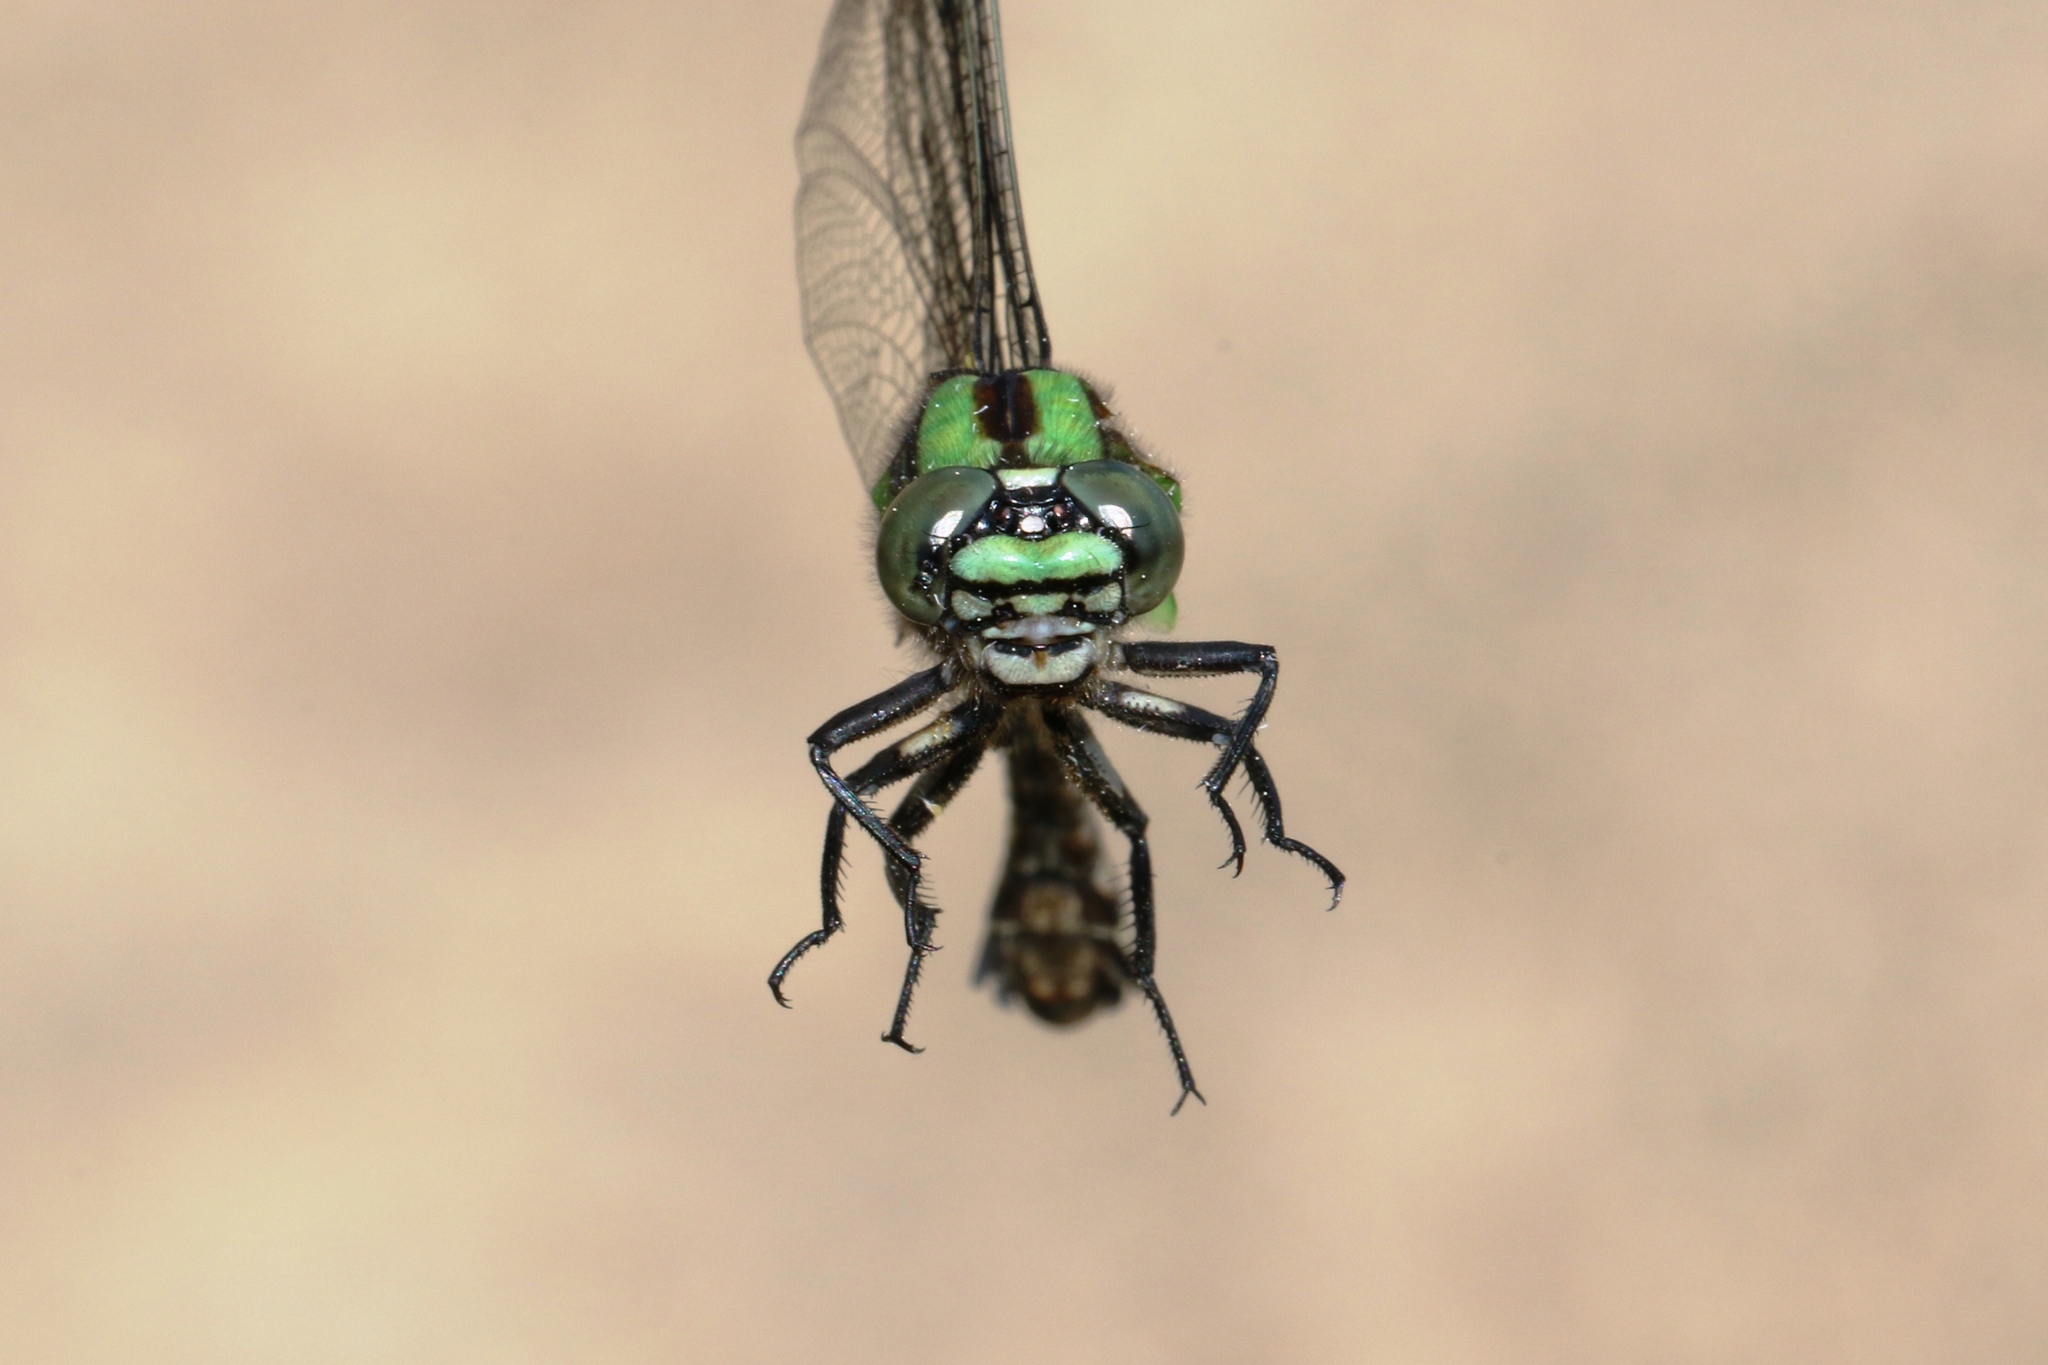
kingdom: Animalia
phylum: Arthropoda
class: Insecta
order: Odonata
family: Gomphidae
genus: Ophiogomphus
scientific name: Ophiogomphus colubrinus
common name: Boreal snaketail
